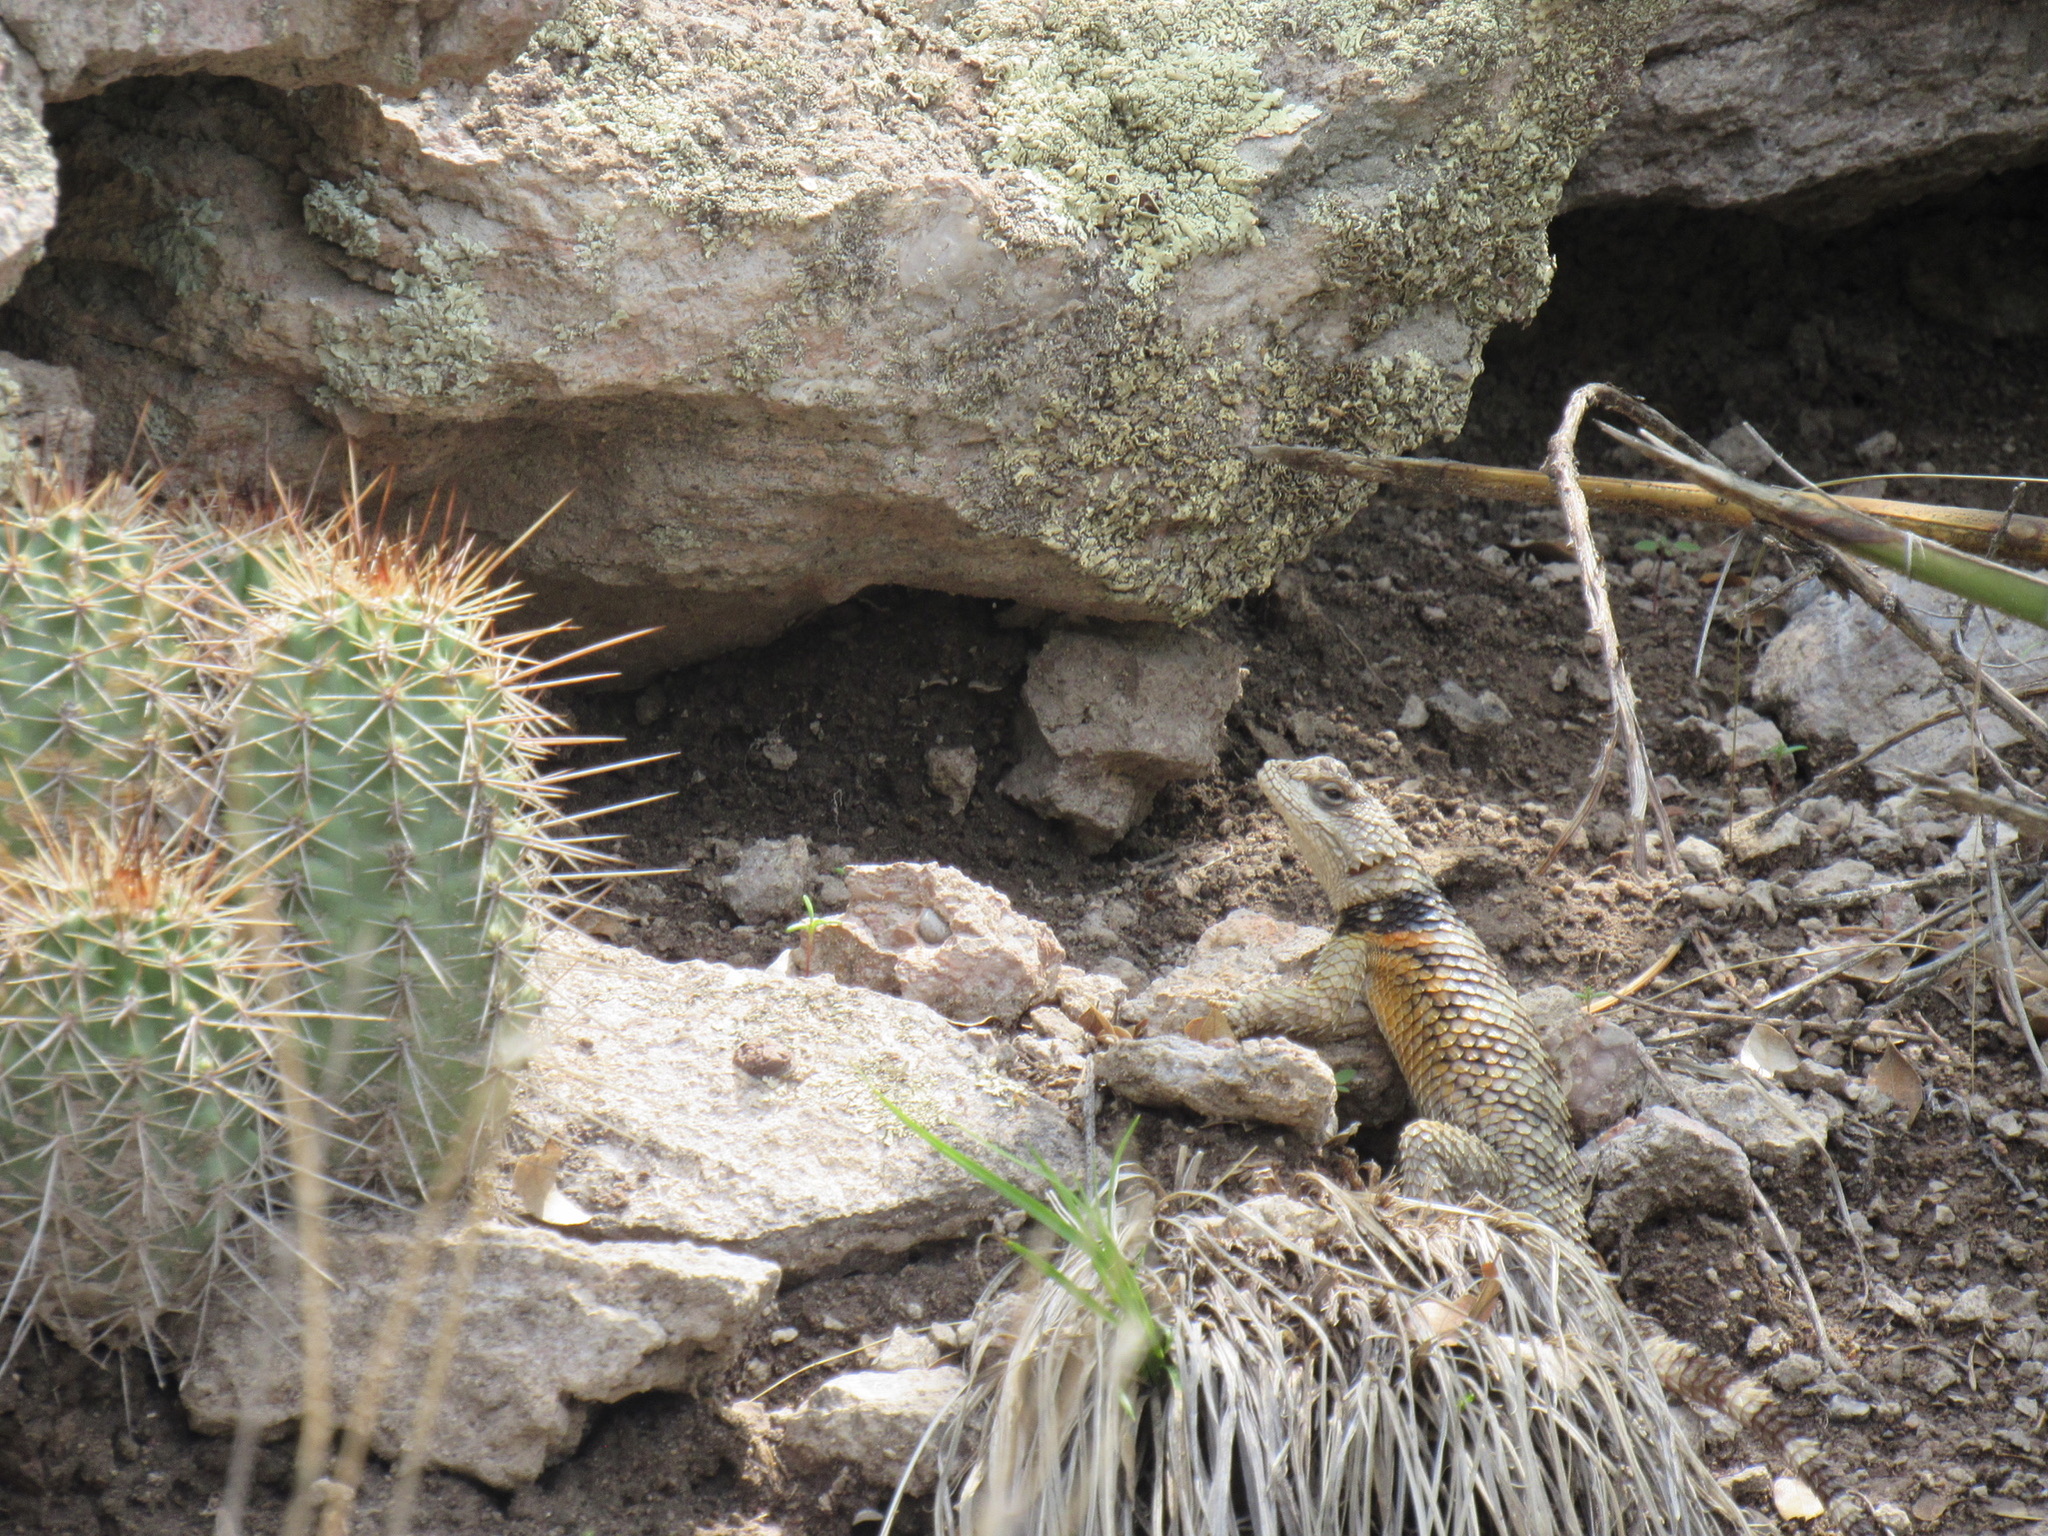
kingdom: Plantae
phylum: Tracheophyta
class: Magnoliopsida
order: Caryophyllales
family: Cactaceae
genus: Echinocereus
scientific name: Echinocereus coccineus
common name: Scarlet hedgehog cactus
